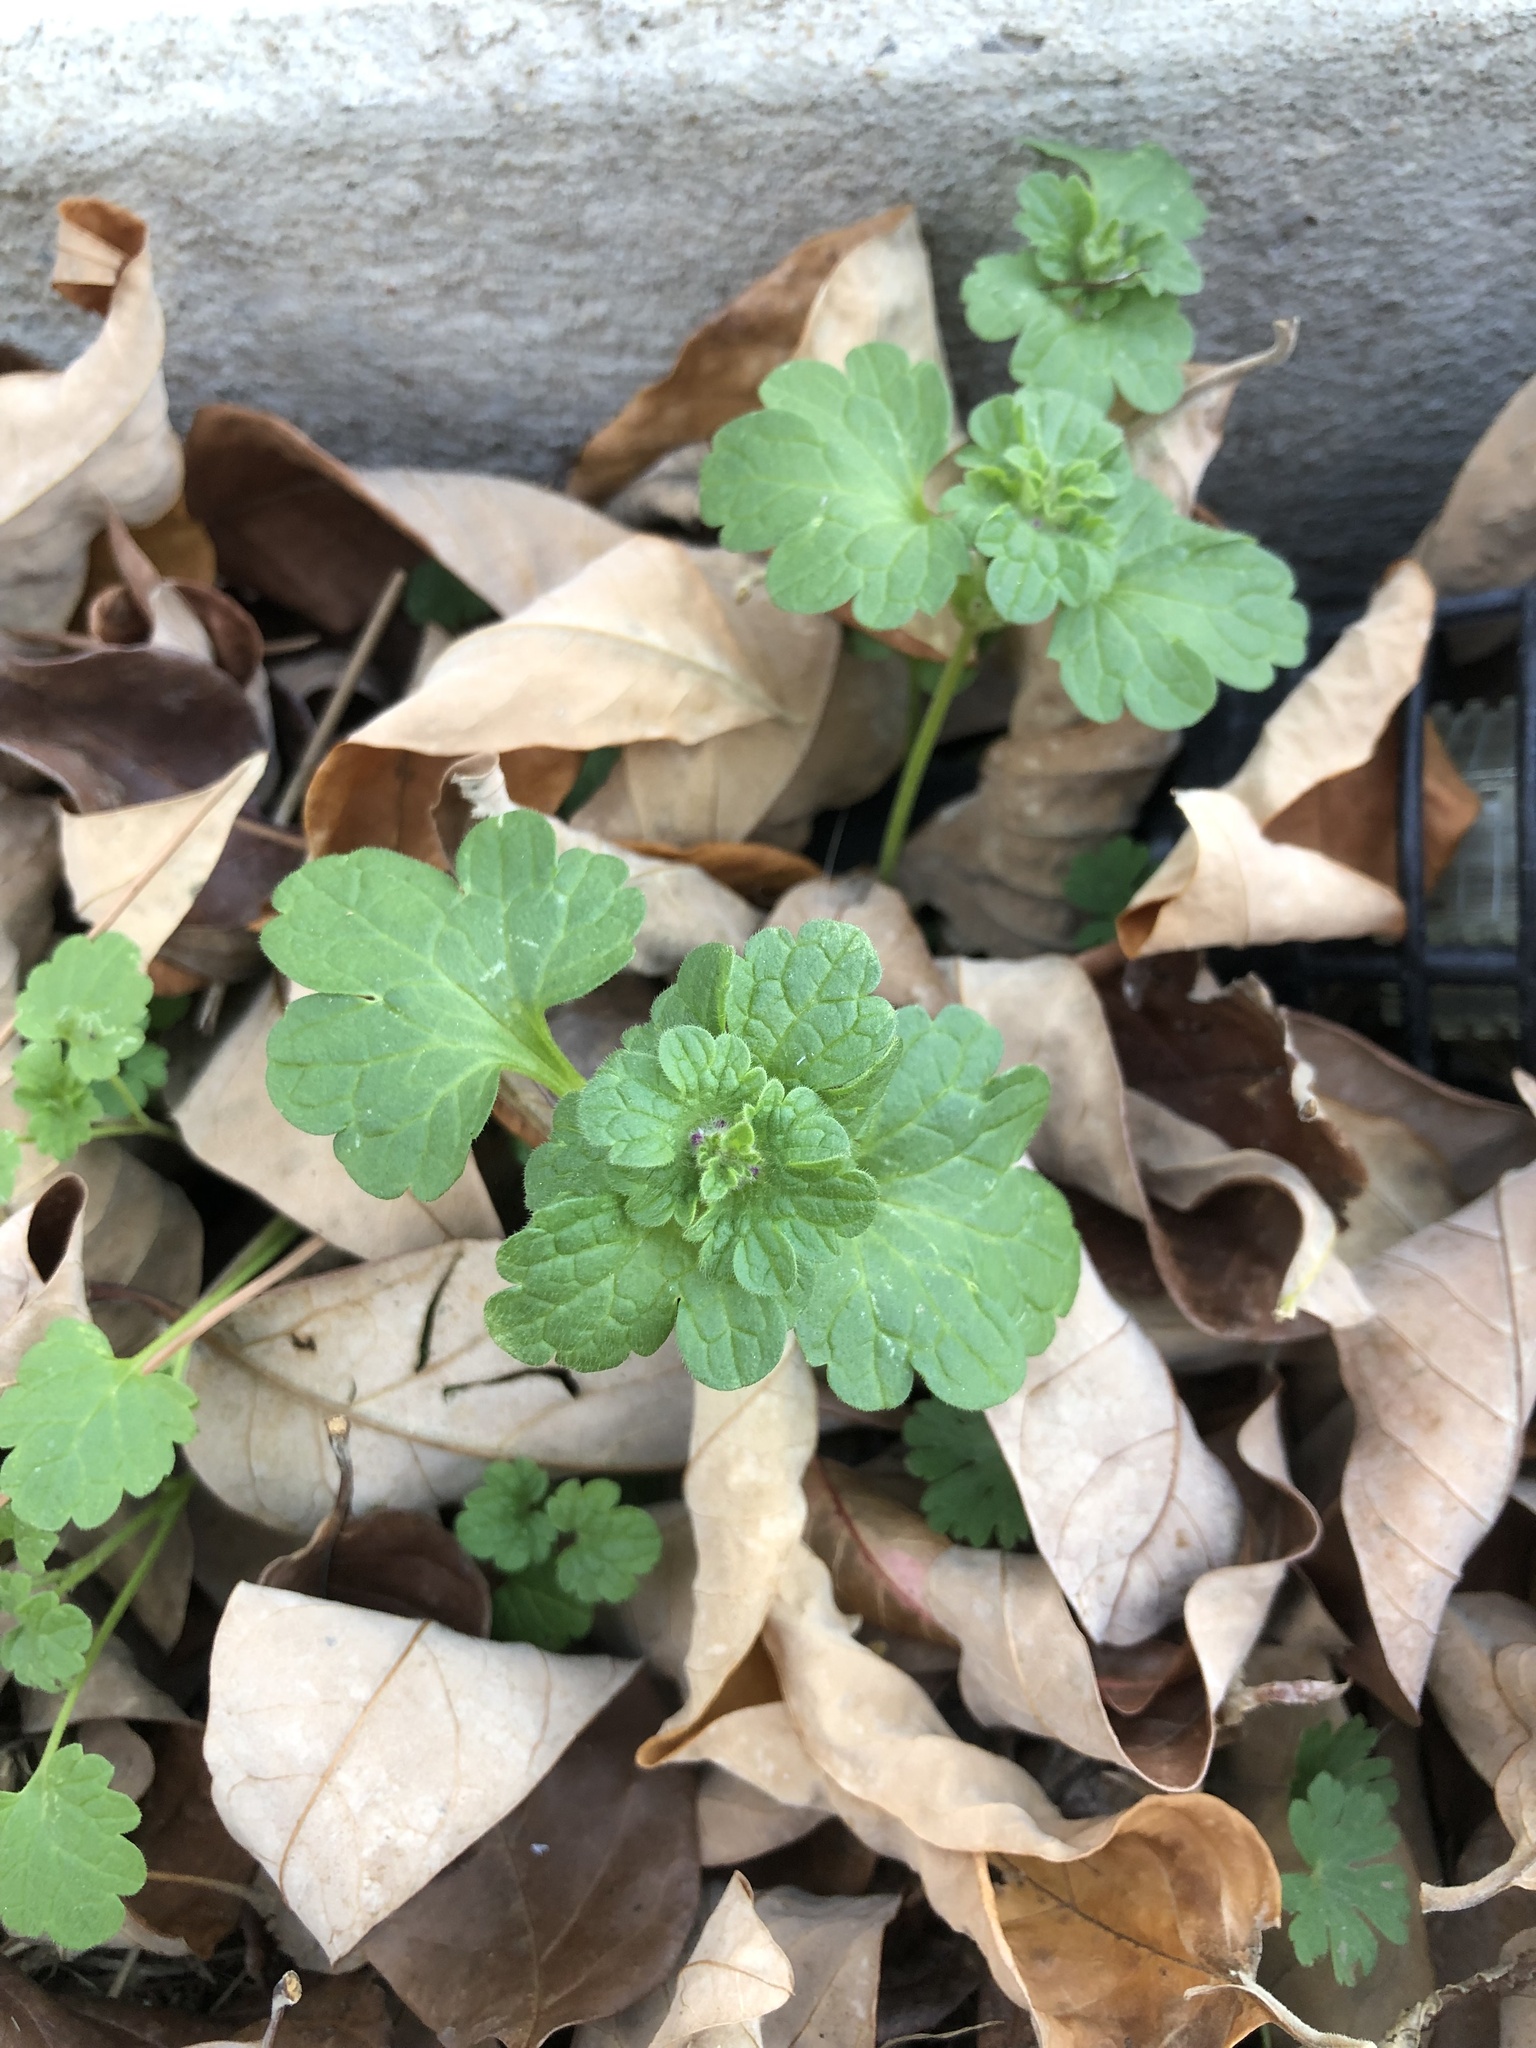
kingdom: Plantae
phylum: Tracheophyta
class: Magnoliopsida
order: Lamiales
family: Lamiaceae
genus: Lamium
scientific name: Lamium amplexicaule
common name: Henbit dead-nettle
